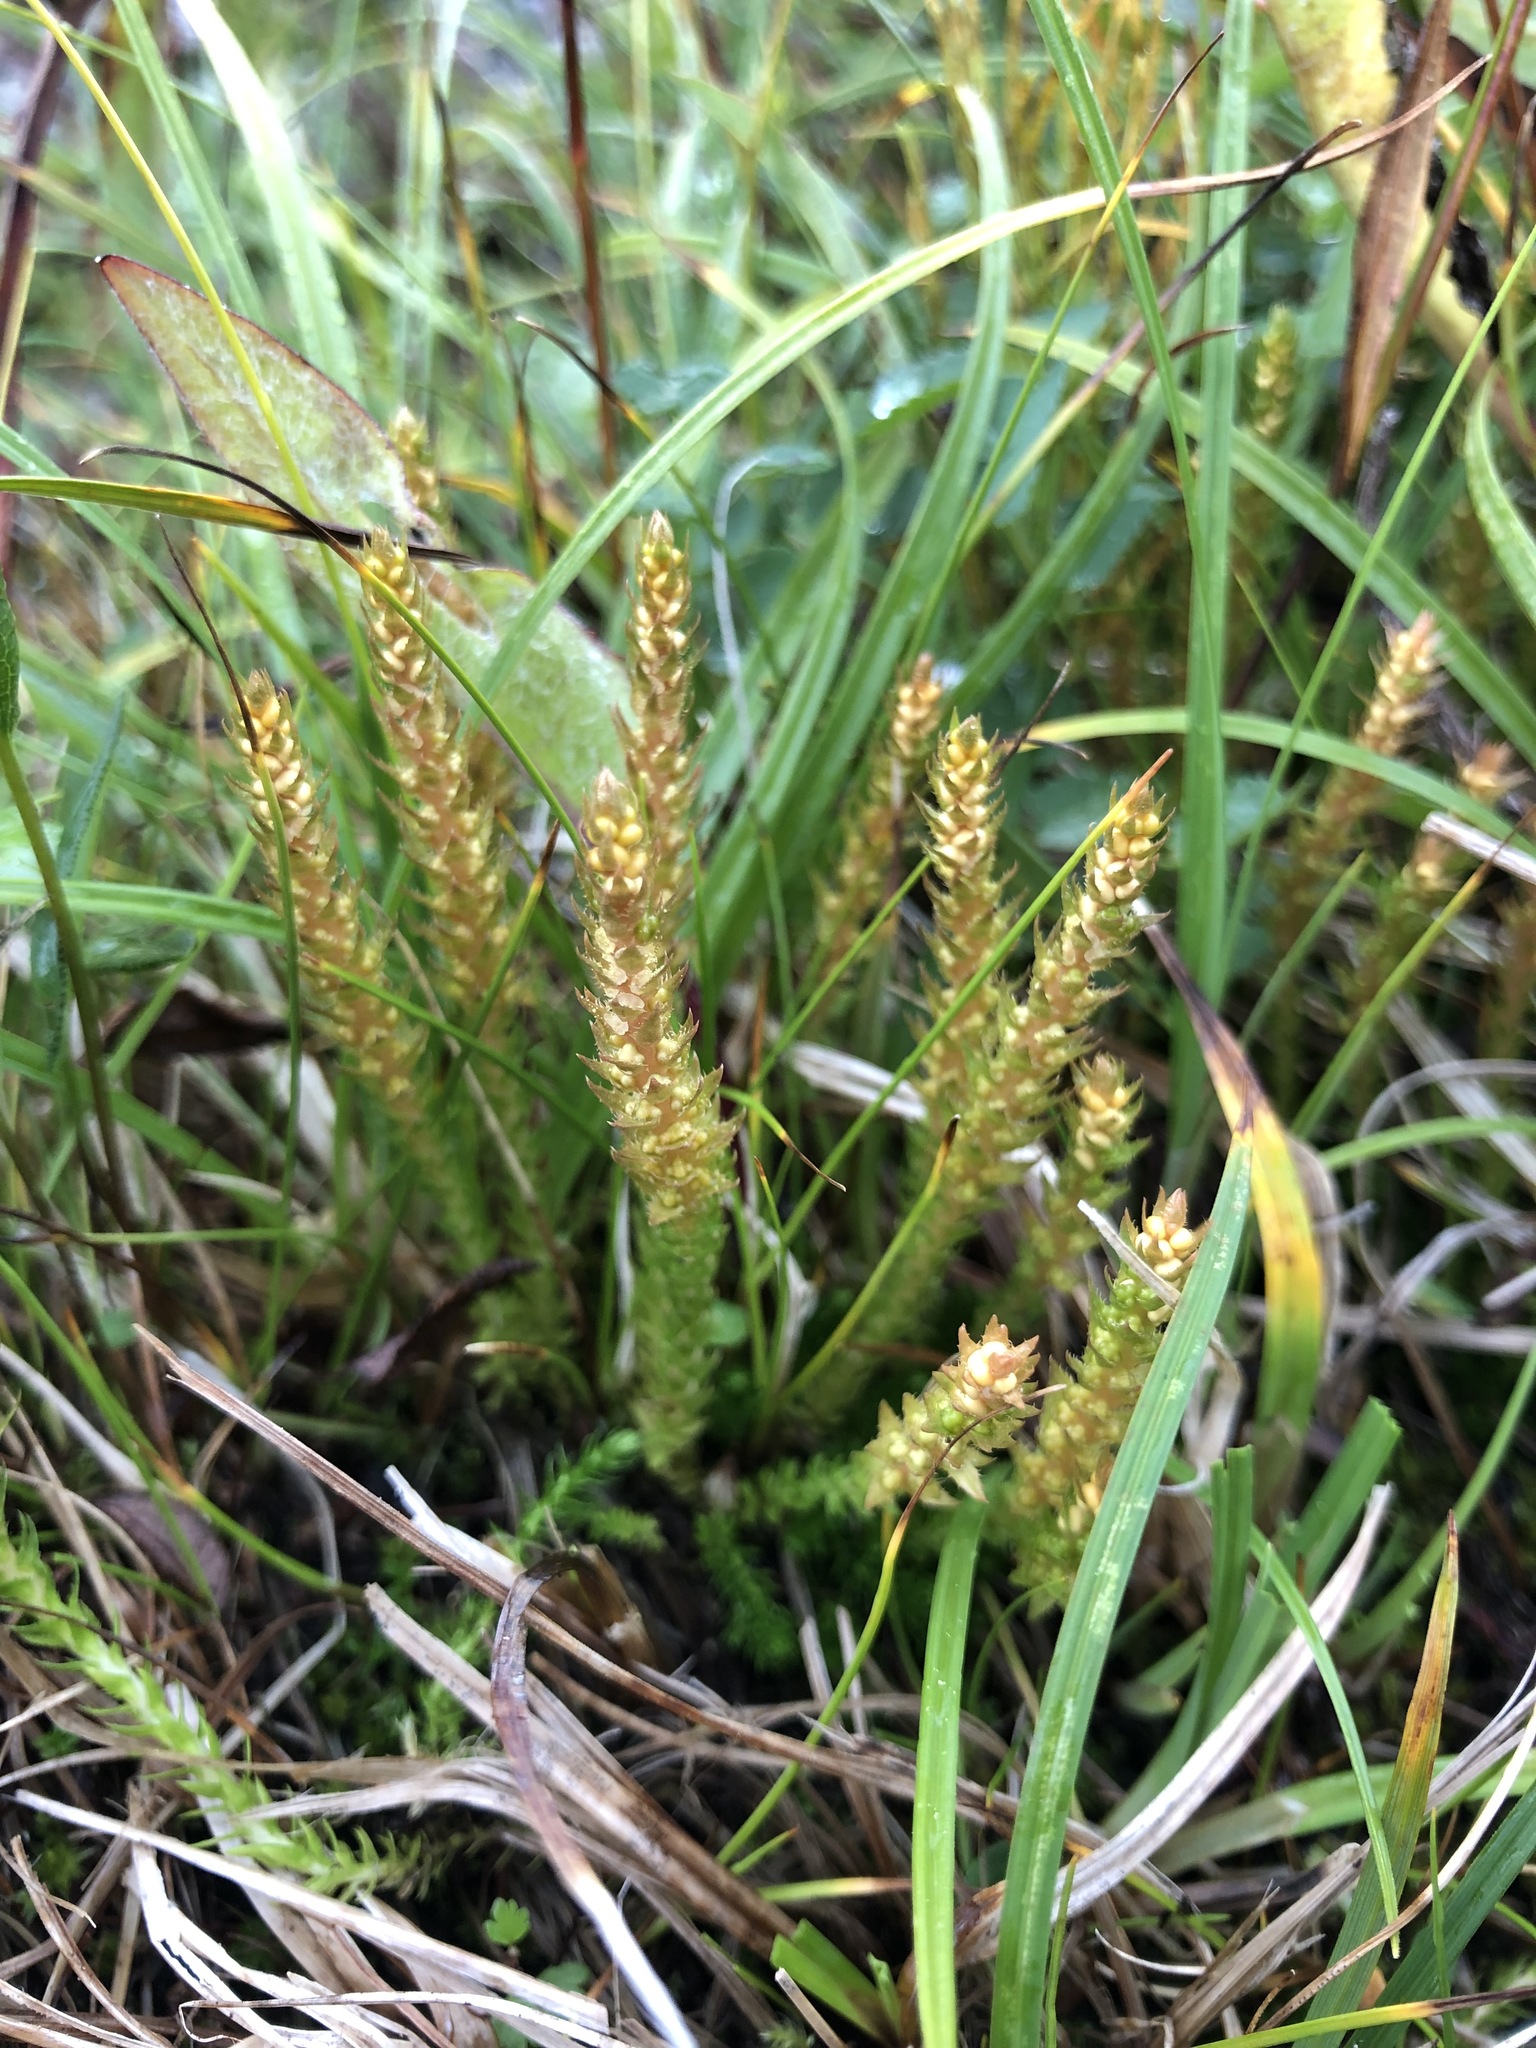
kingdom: Plantae
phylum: Tracheophyta
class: Lycopodiopsida
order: Selaginellales
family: Selaginellaceae
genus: Selaginella
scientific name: Selaginella selaginoides
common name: Prickly mountain-moss
